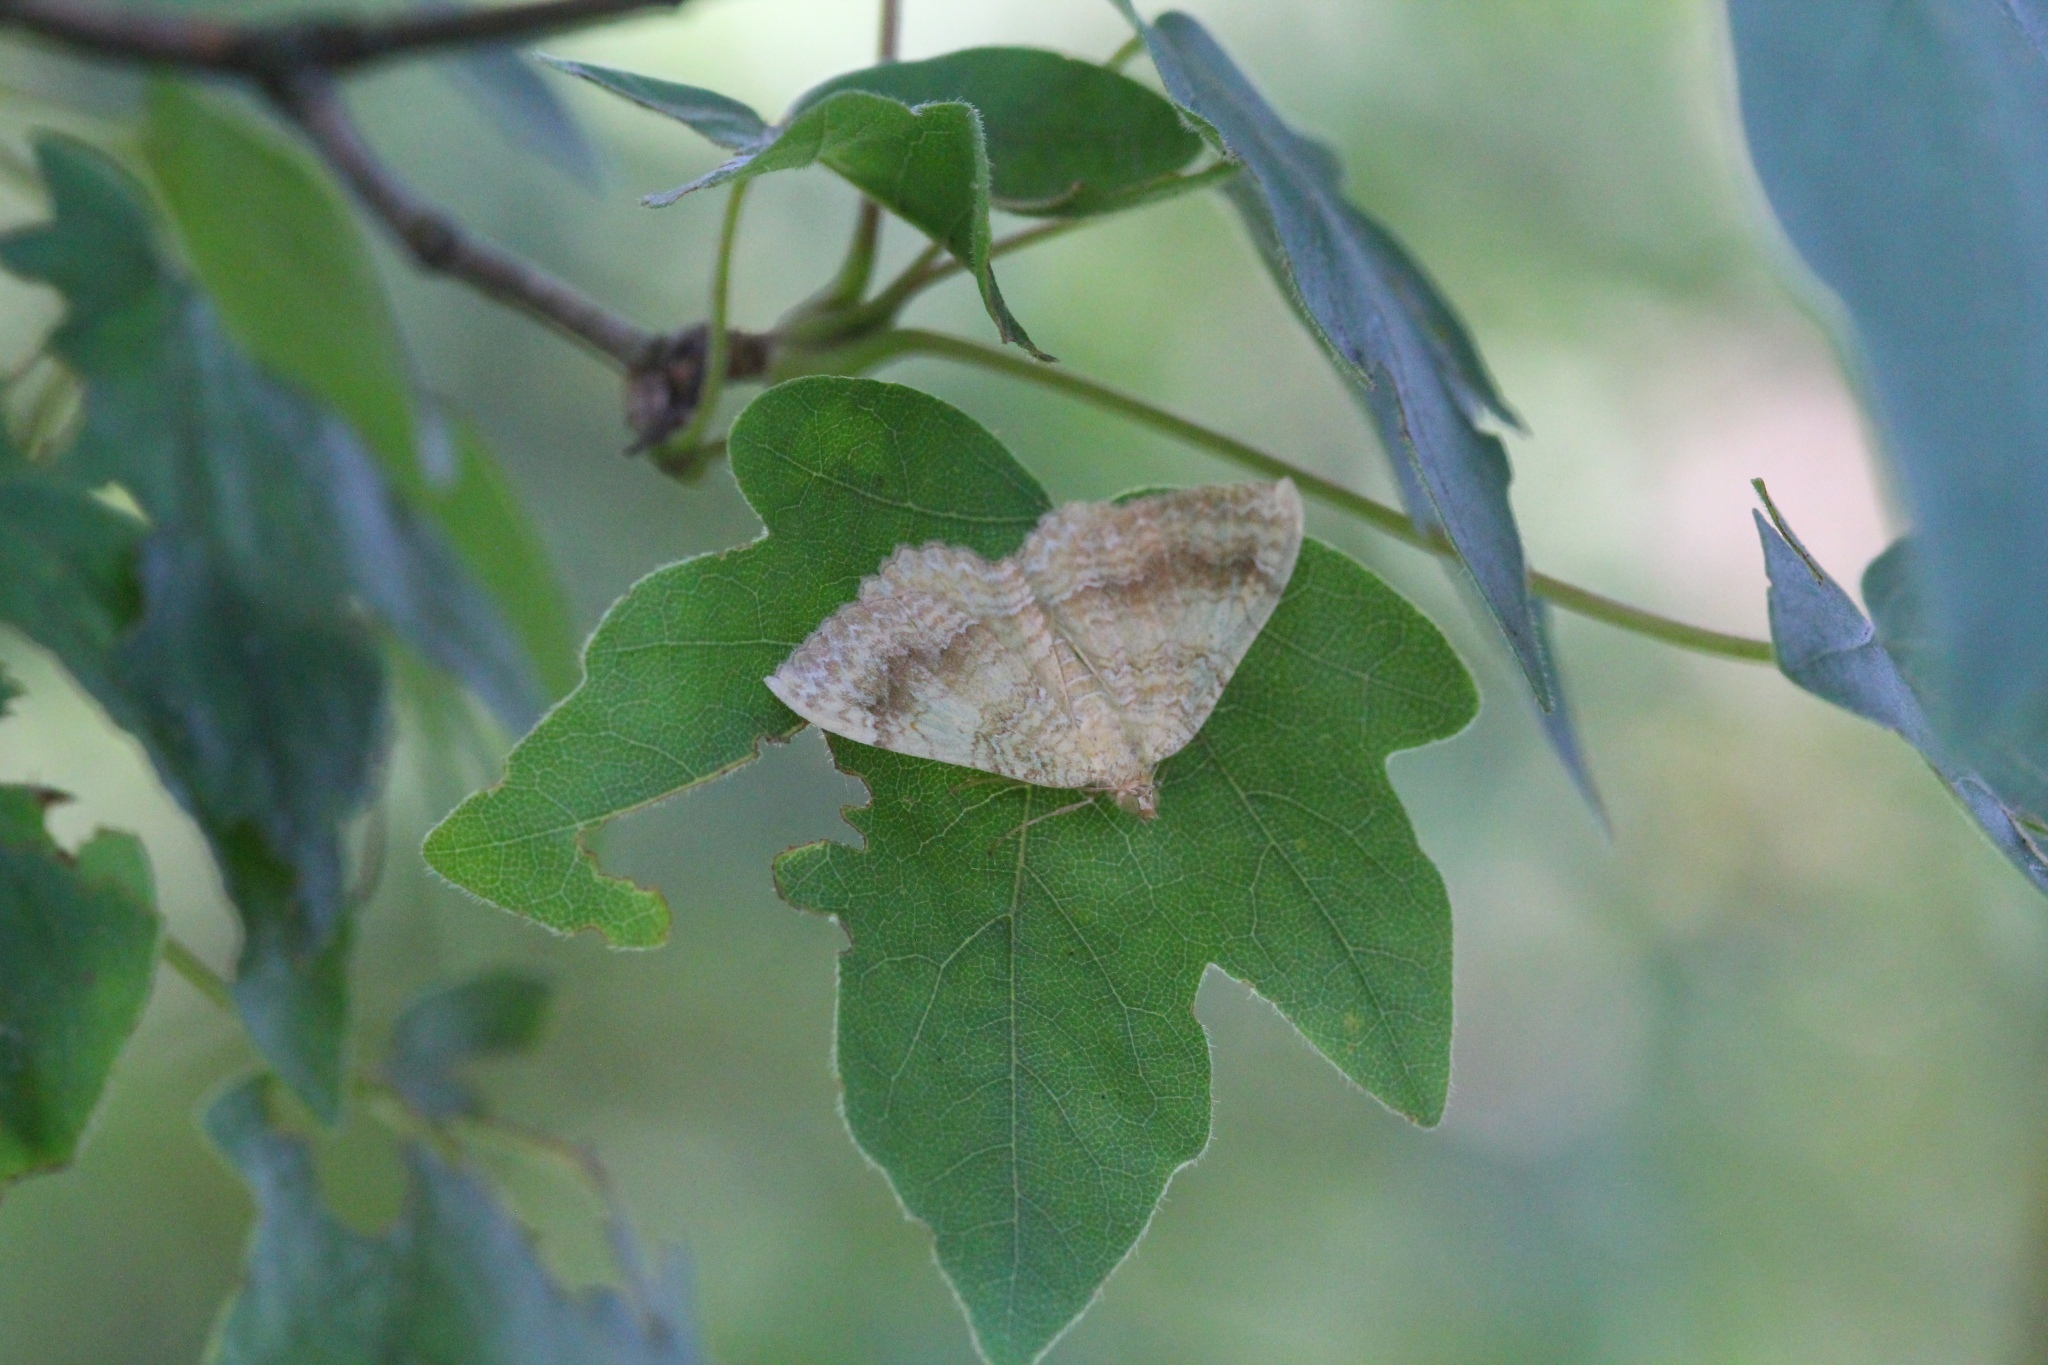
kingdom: Animalia
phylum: Arthropoda
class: Insecta
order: Lepidoptera
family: Geometridae
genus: Camptogramma
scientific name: Camptogramma bilineata
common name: Yellow shell
